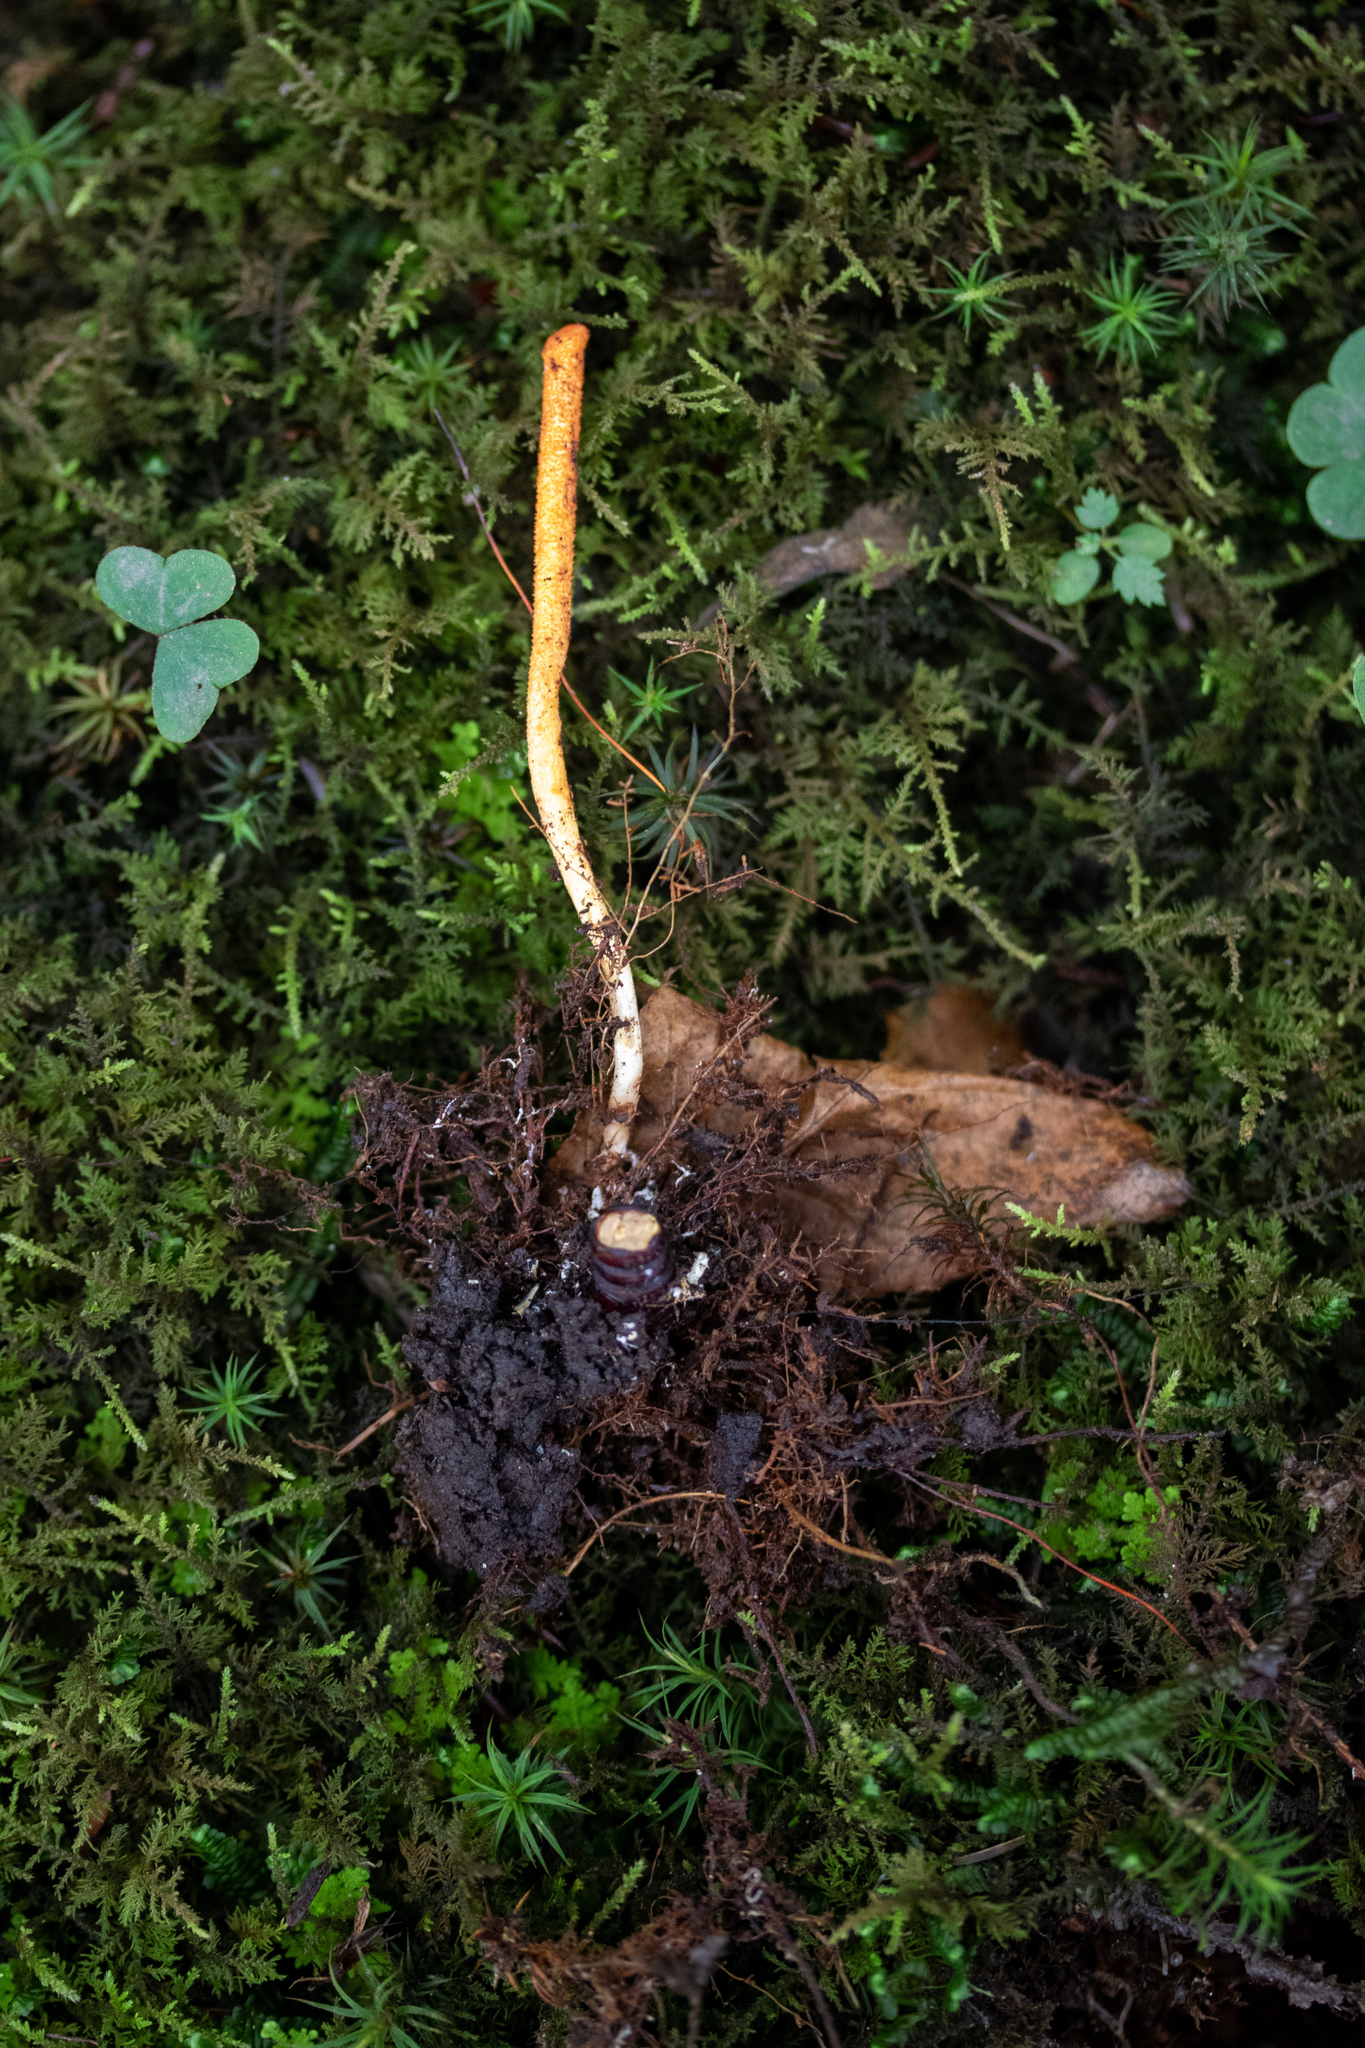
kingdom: Fungi
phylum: Ascomycota
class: Sordariomycetes
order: Hypocreales
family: Cordycipitaceae
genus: Cordyceps
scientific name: Cordyceps militaris
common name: Scarlet caterpillar fungus
